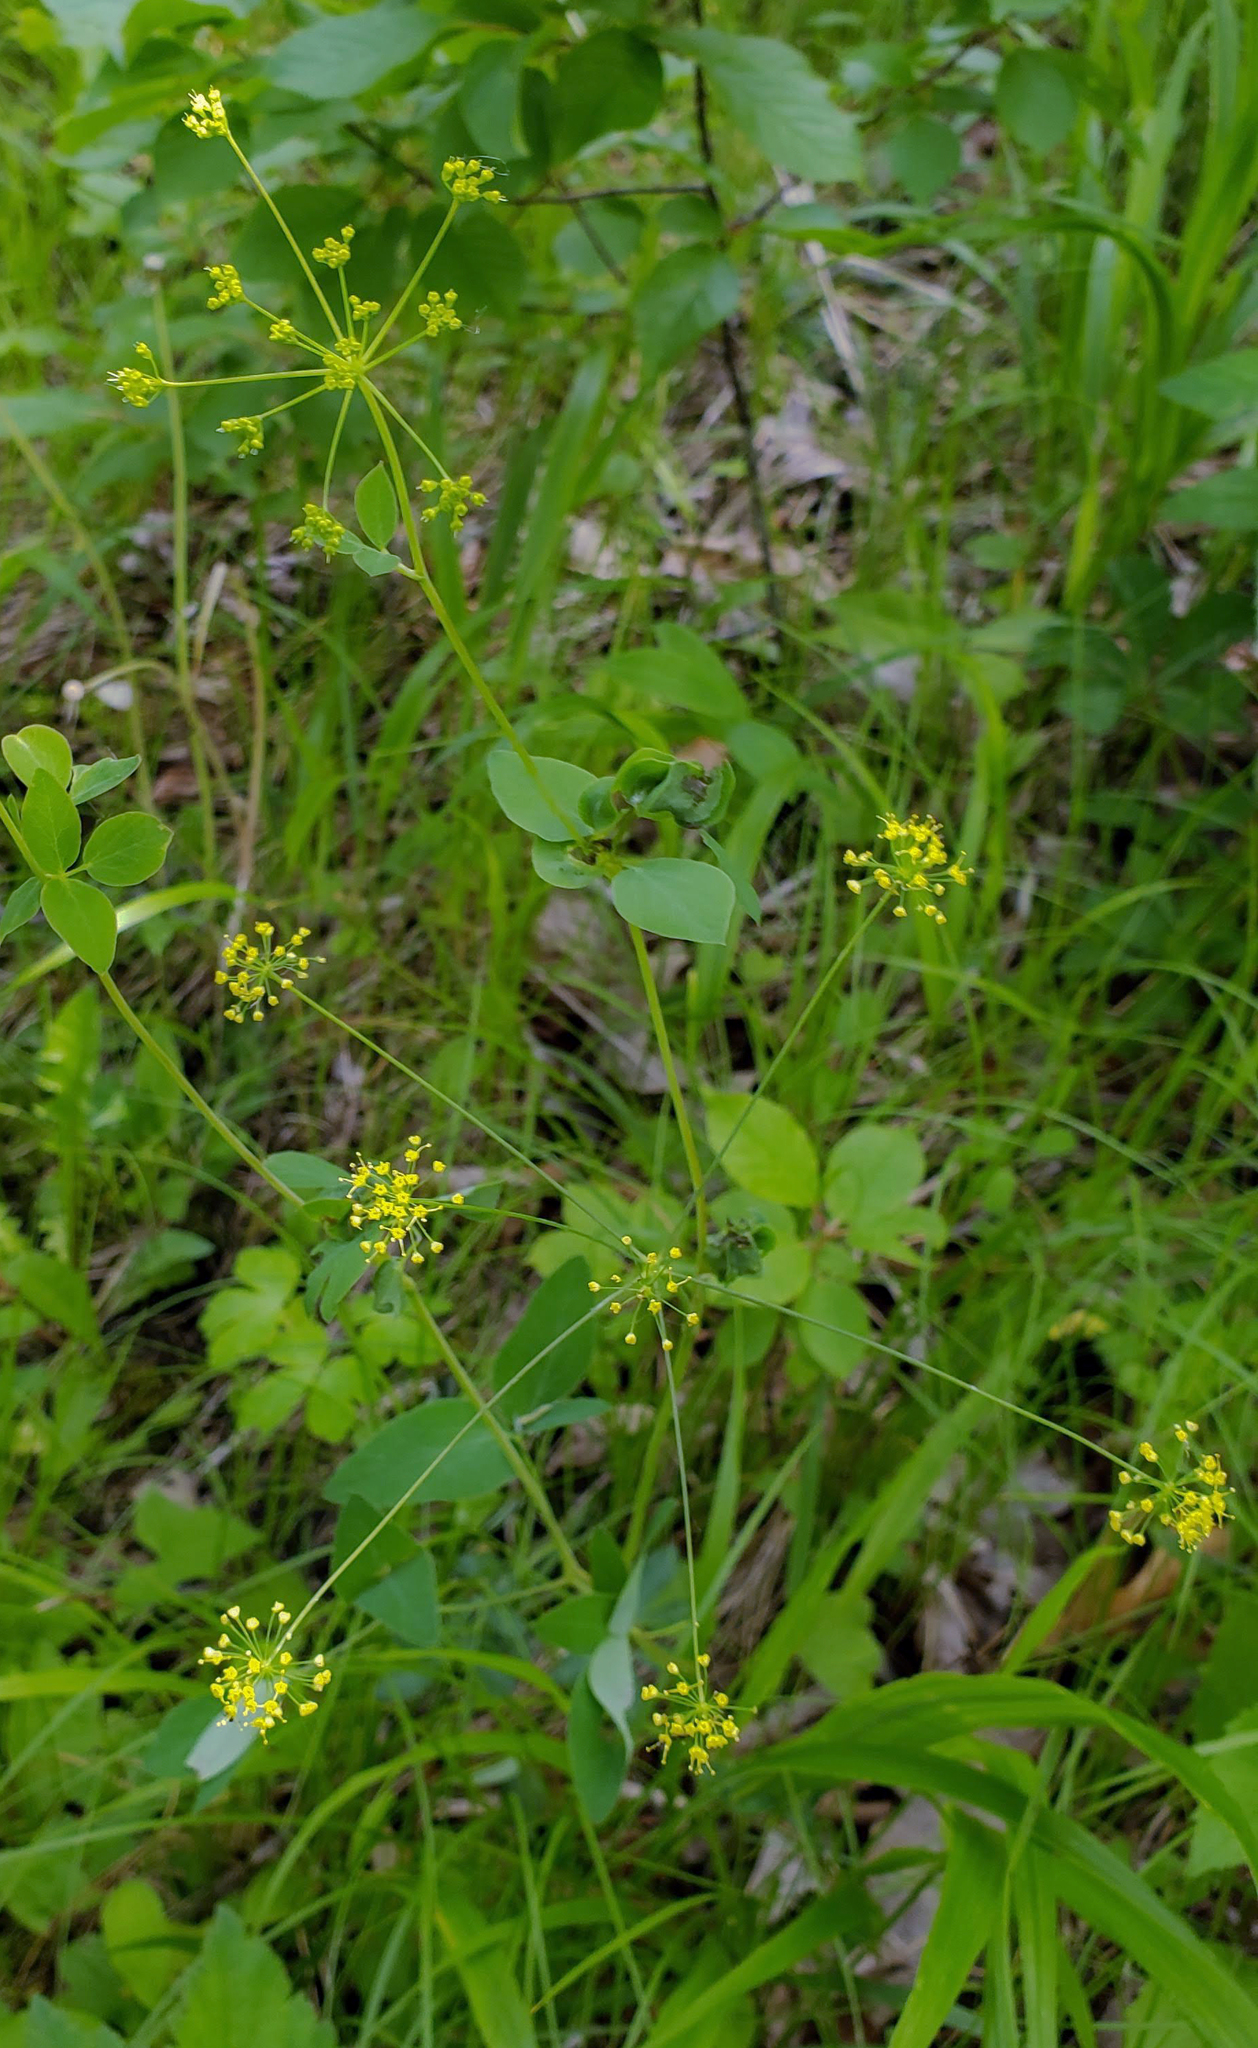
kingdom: Plantae
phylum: Tracheophyta
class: Magnoliopsida
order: Apiales
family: Apiaceae
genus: Taenidia
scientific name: Taenidia integerrima
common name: Golden alexander
